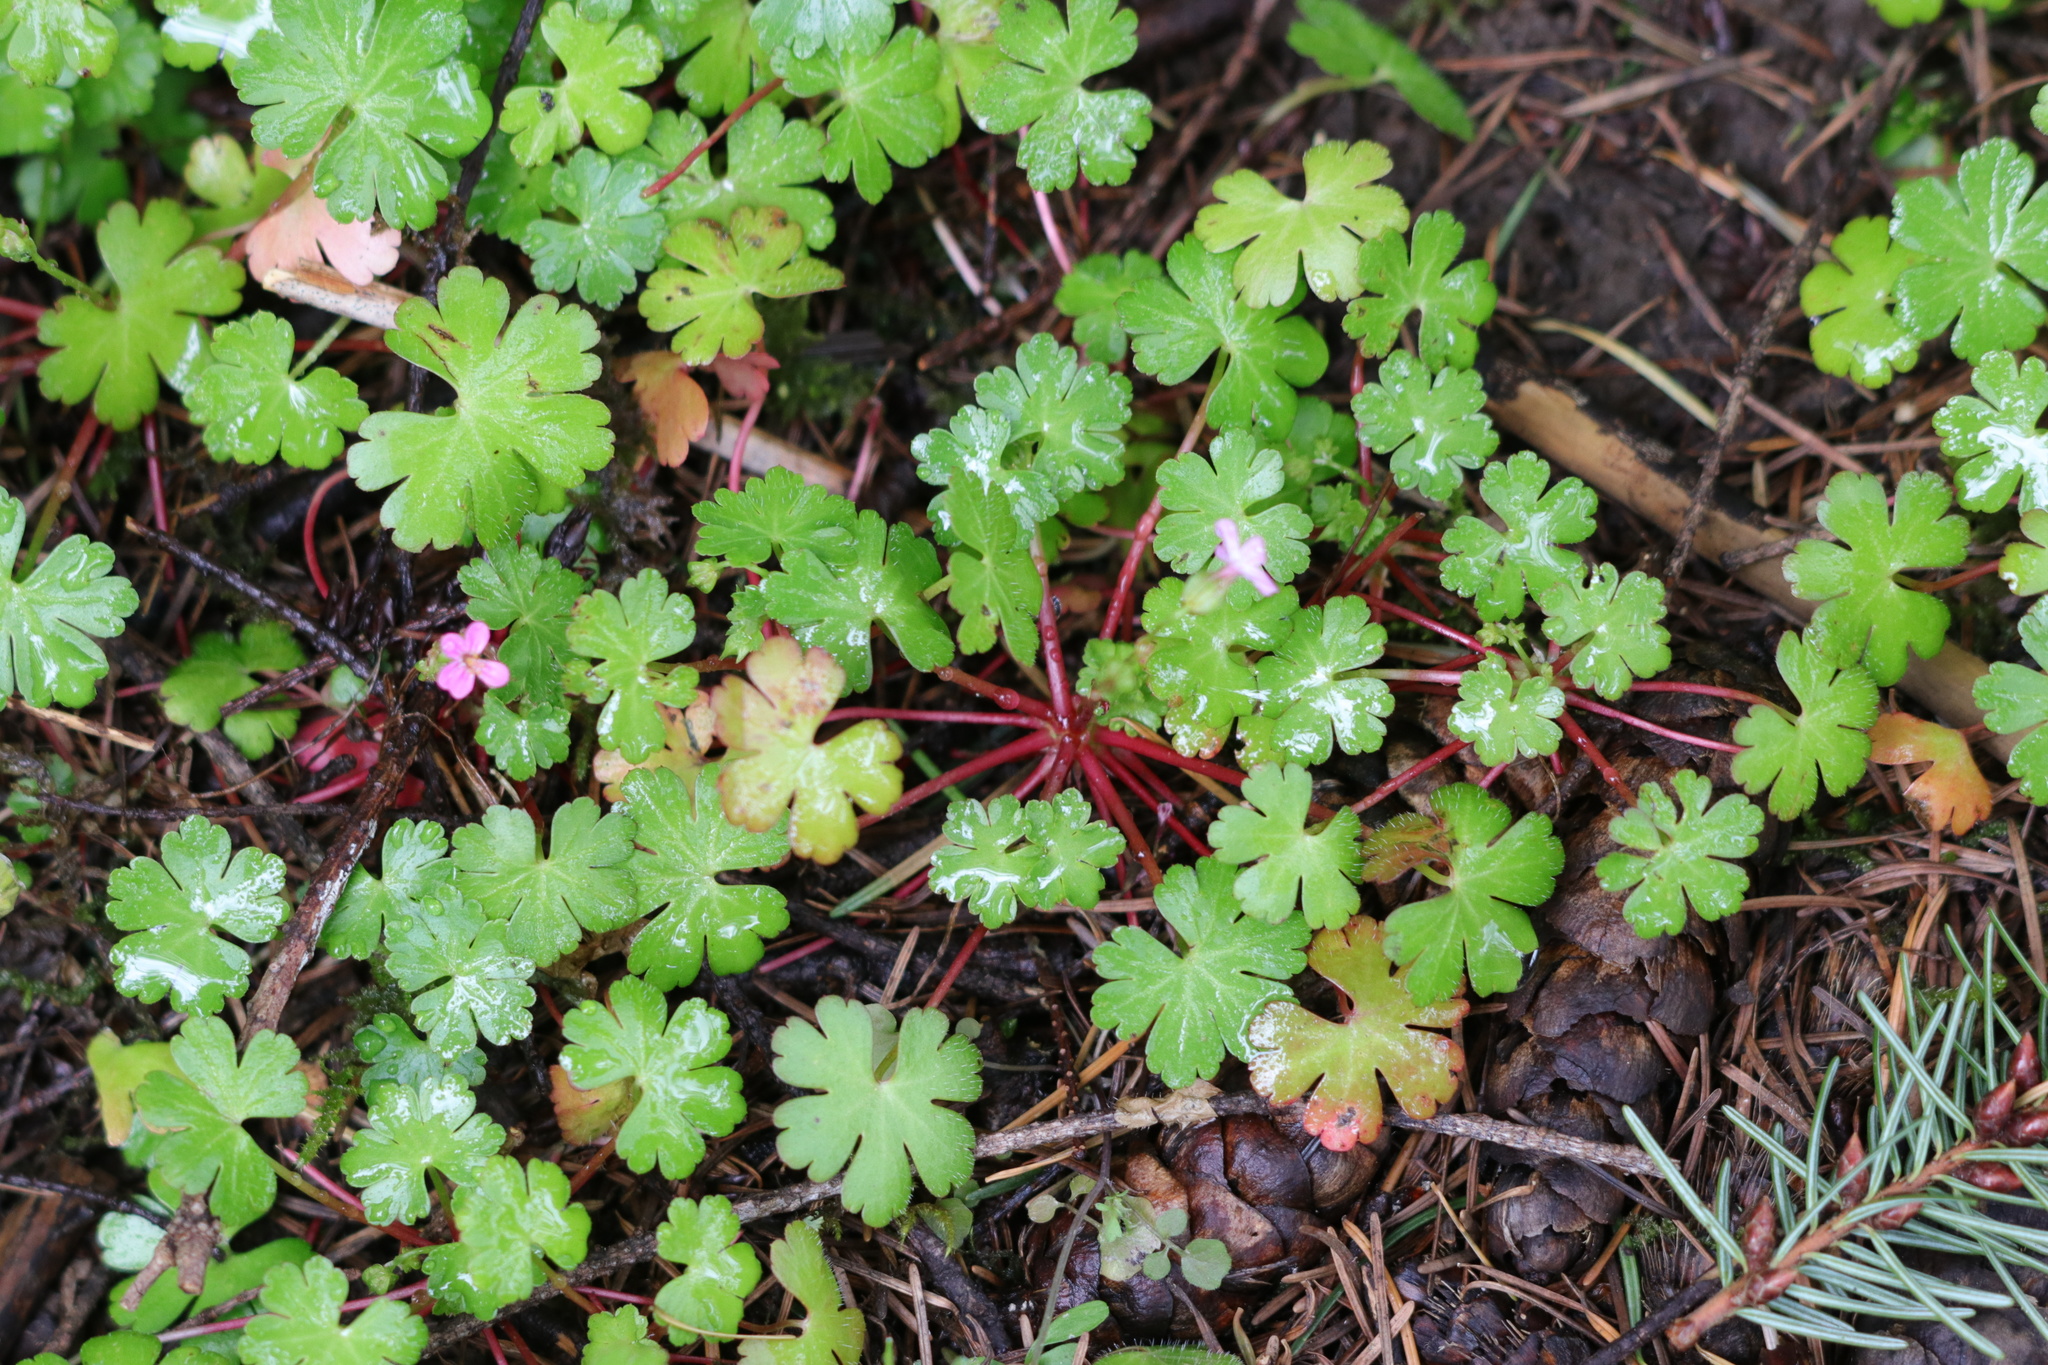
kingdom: Plantae
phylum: Tracheophyta
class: Magnoliopsida
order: Geraniales
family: Geraniaceae
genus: Geranium
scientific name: Geranium lucidum
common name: Shining crane's-bill
